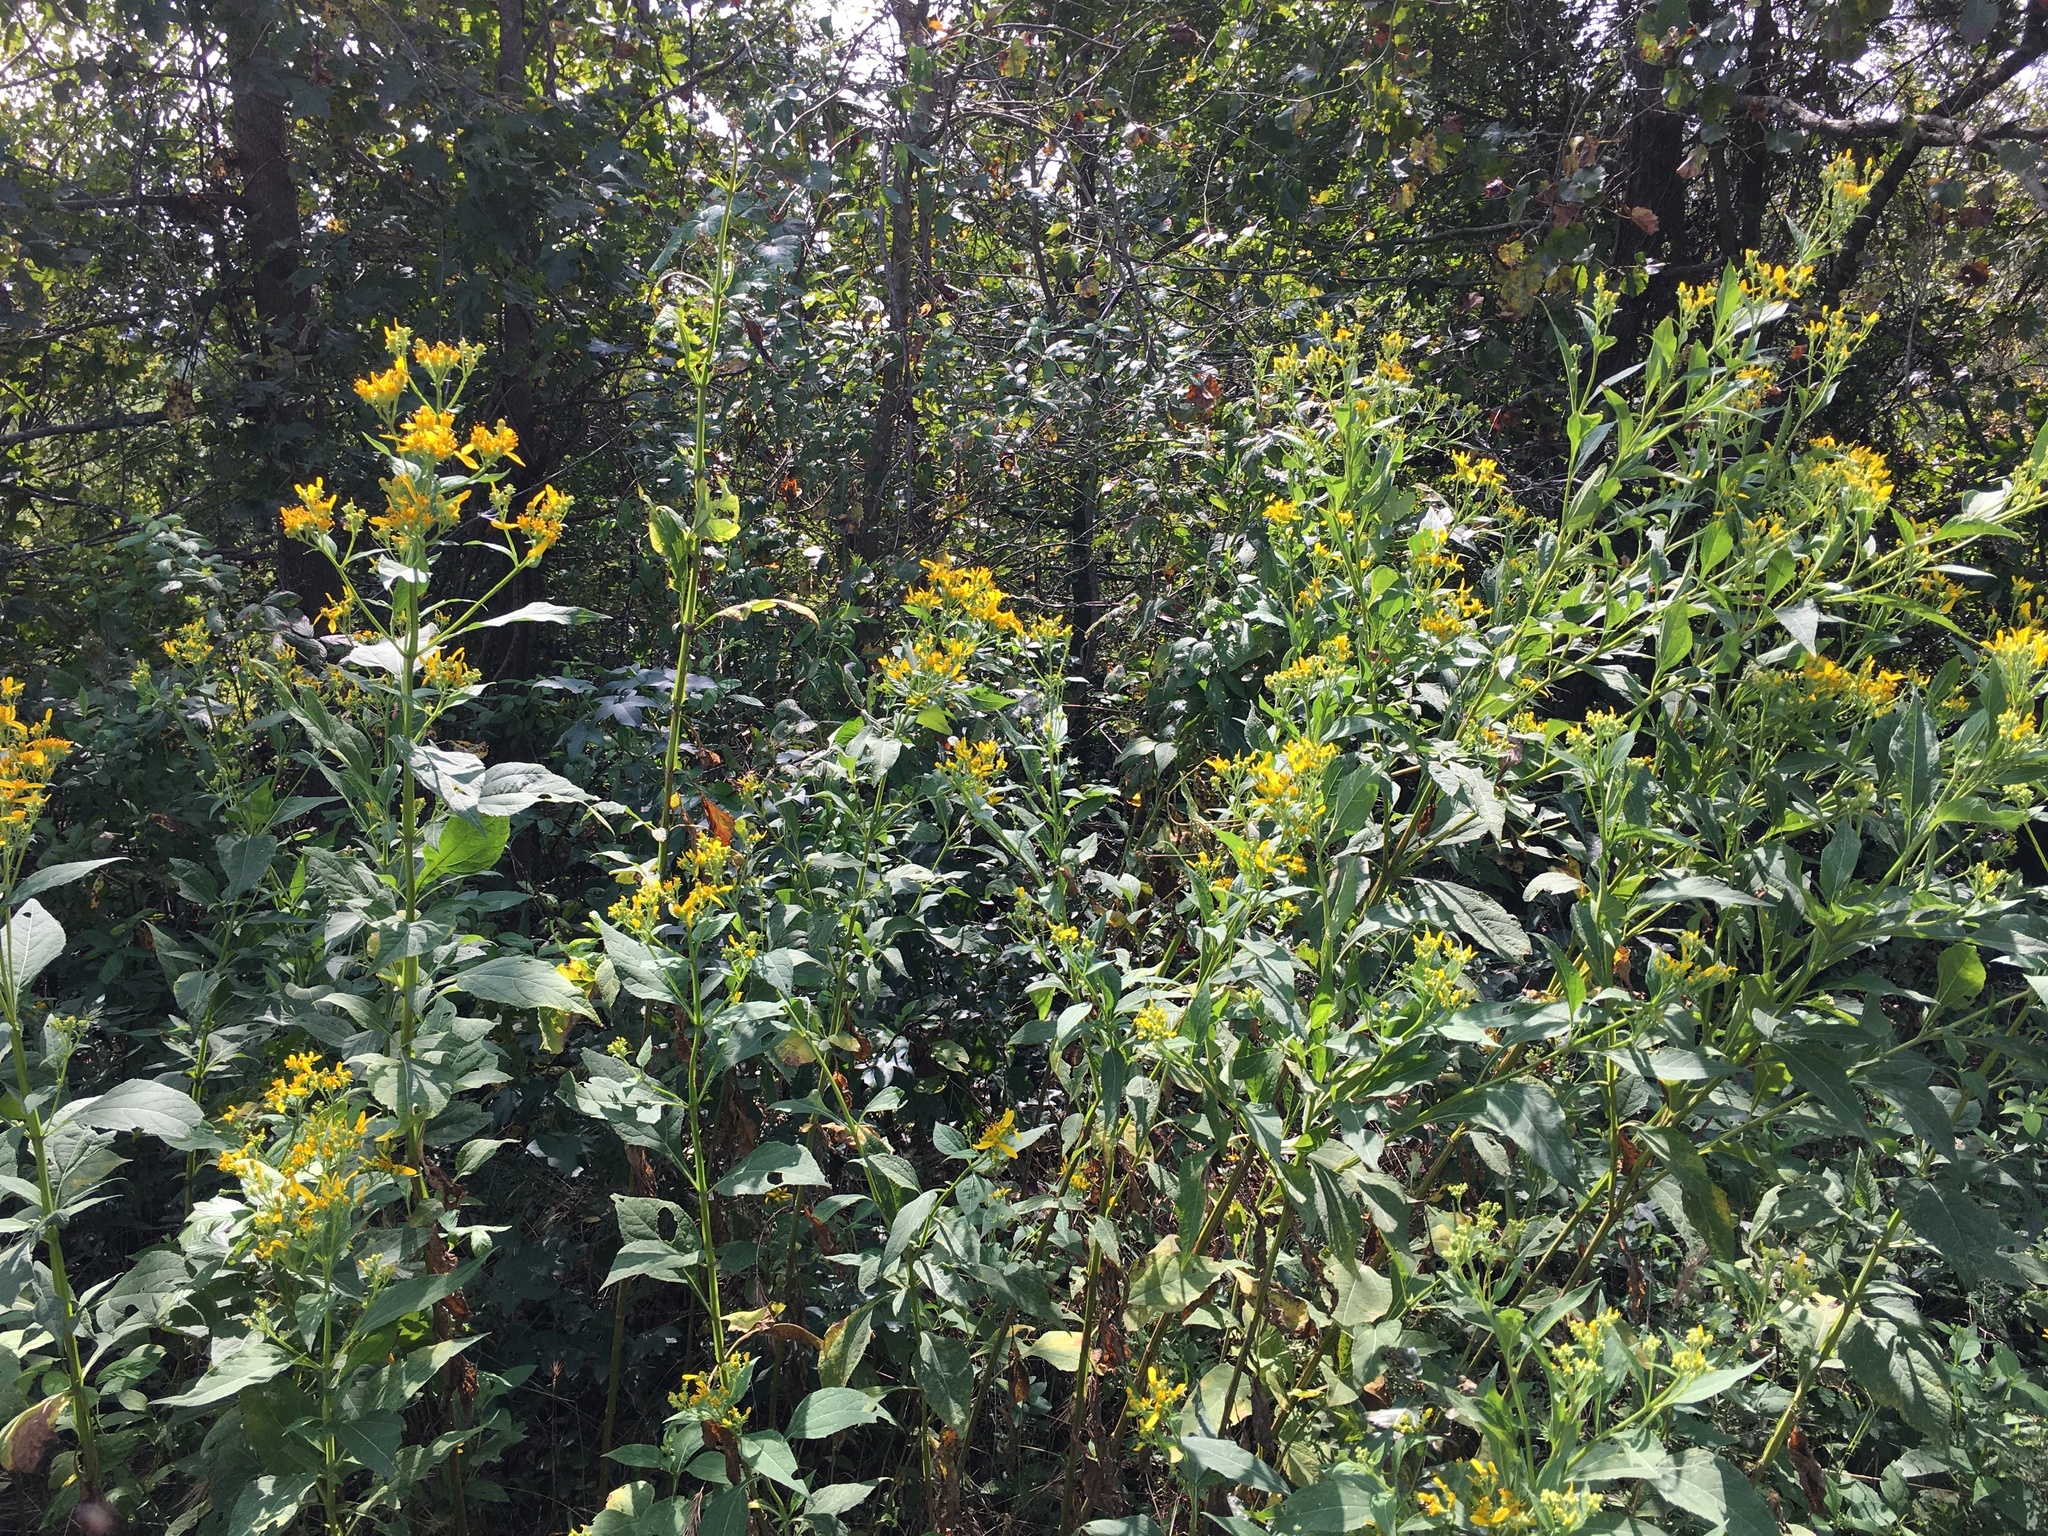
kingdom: Plantae
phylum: Tracheophyta
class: Magnoliopsida
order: Asterales
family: Asteraceae
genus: Verbesina
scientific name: Verbesina occidentalis
